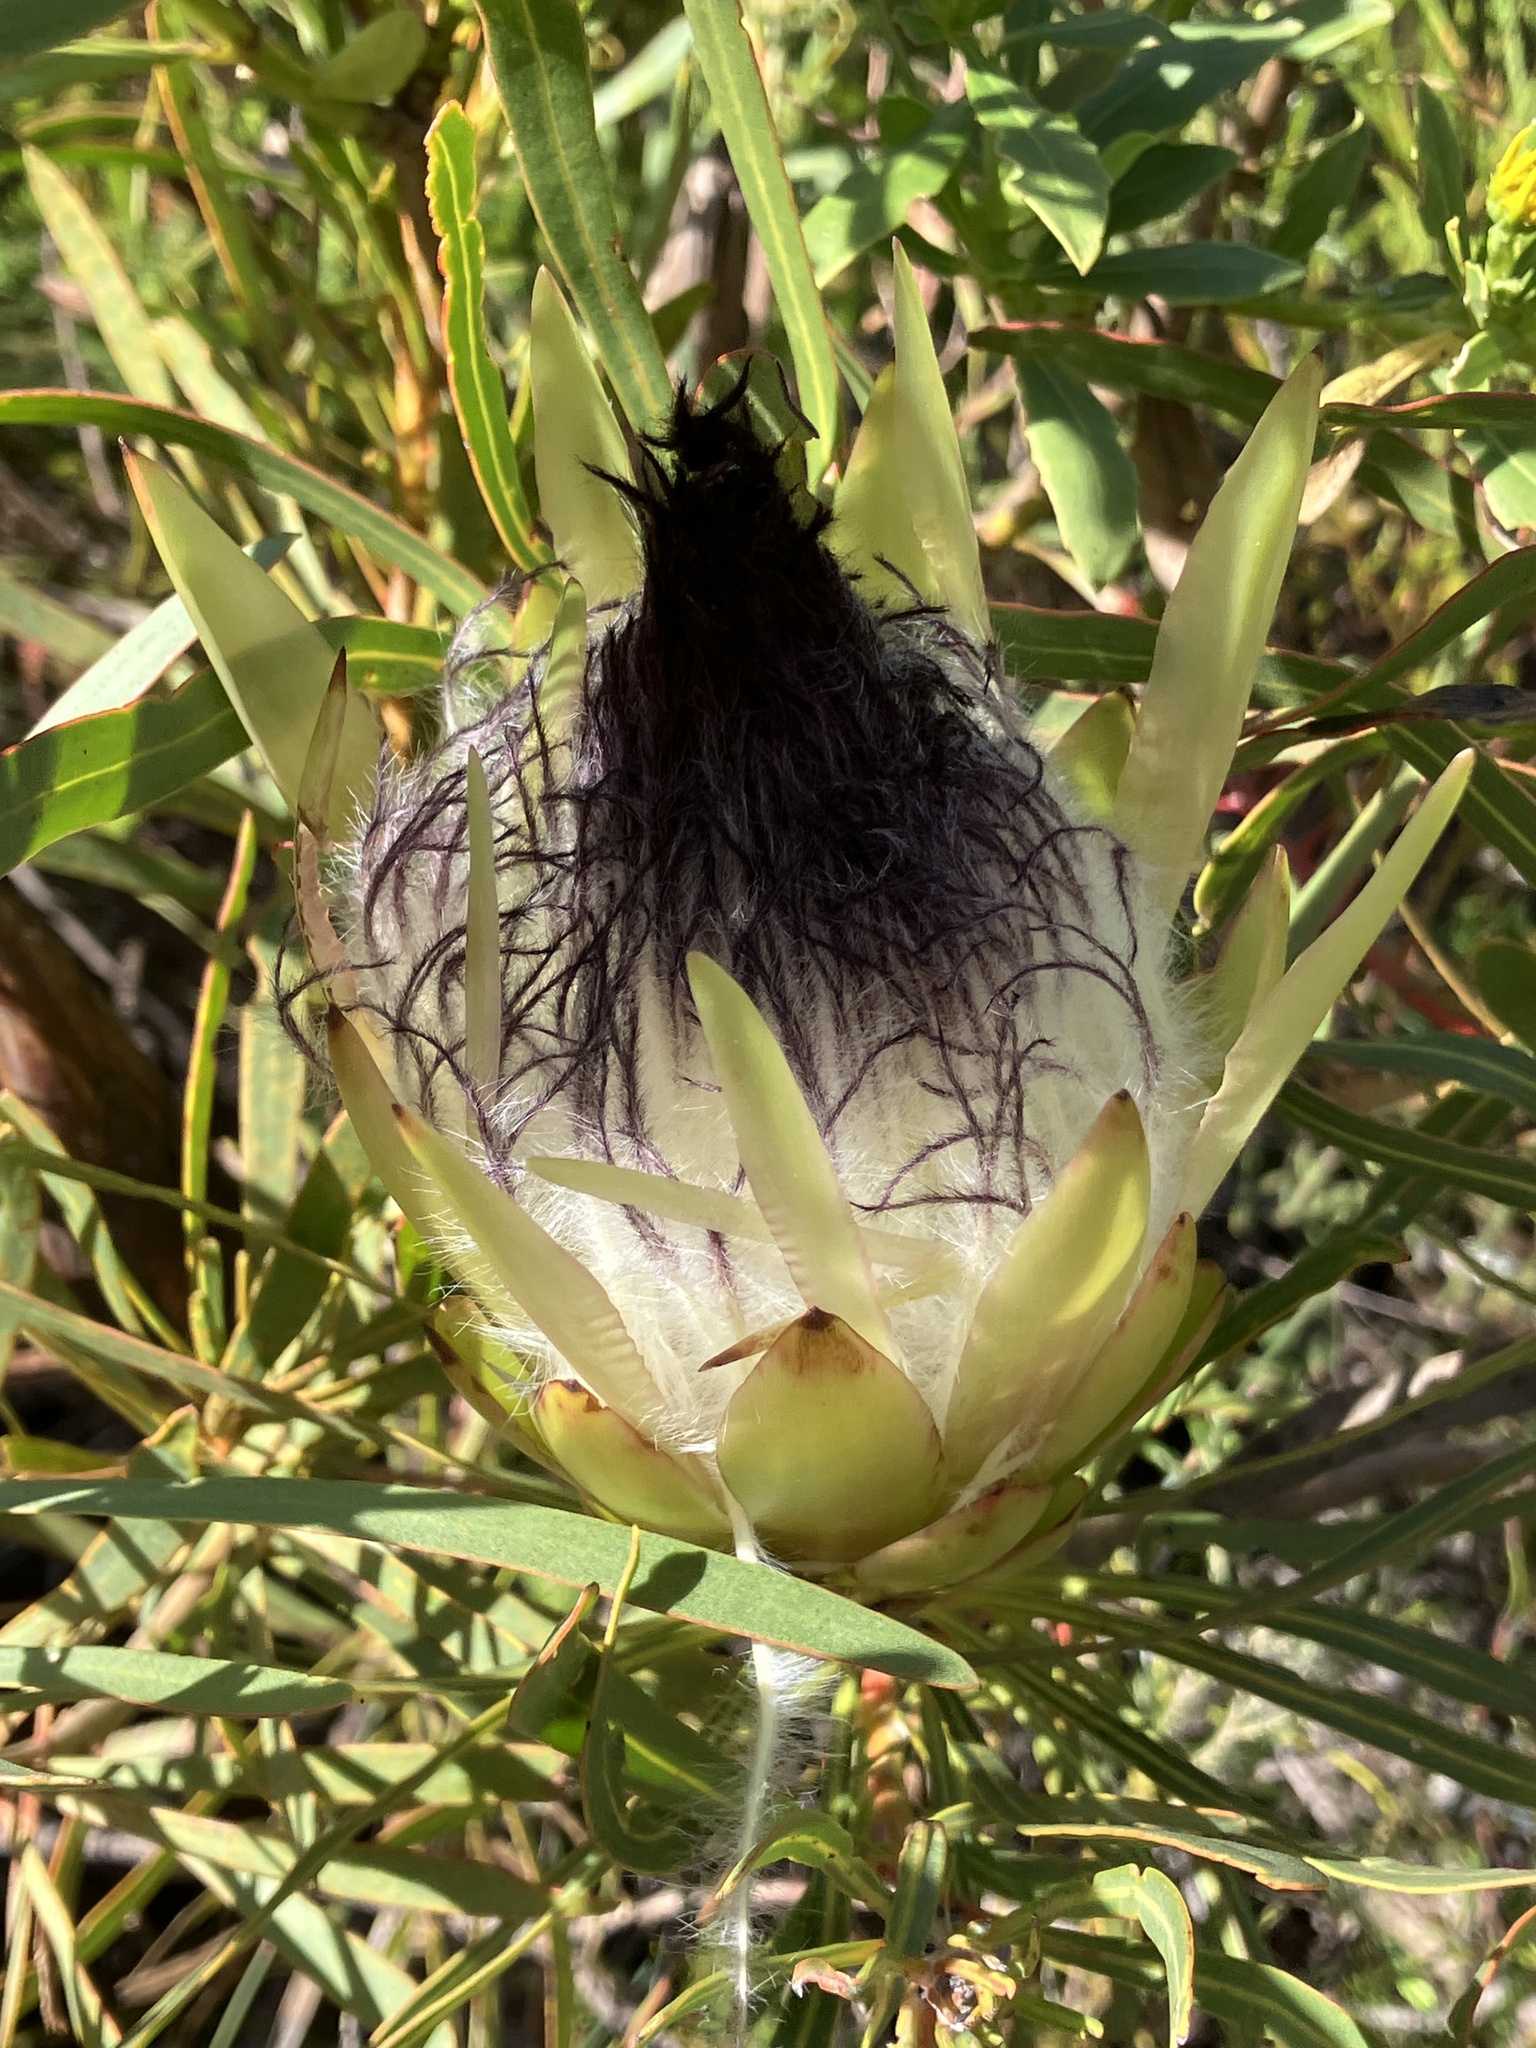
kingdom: Plantae
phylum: Tracheophyta
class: Magnoliopsida
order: Proteales
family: Proteaceae
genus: Protea
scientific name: Protea longifolia
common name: Long-leaf sugarbush
